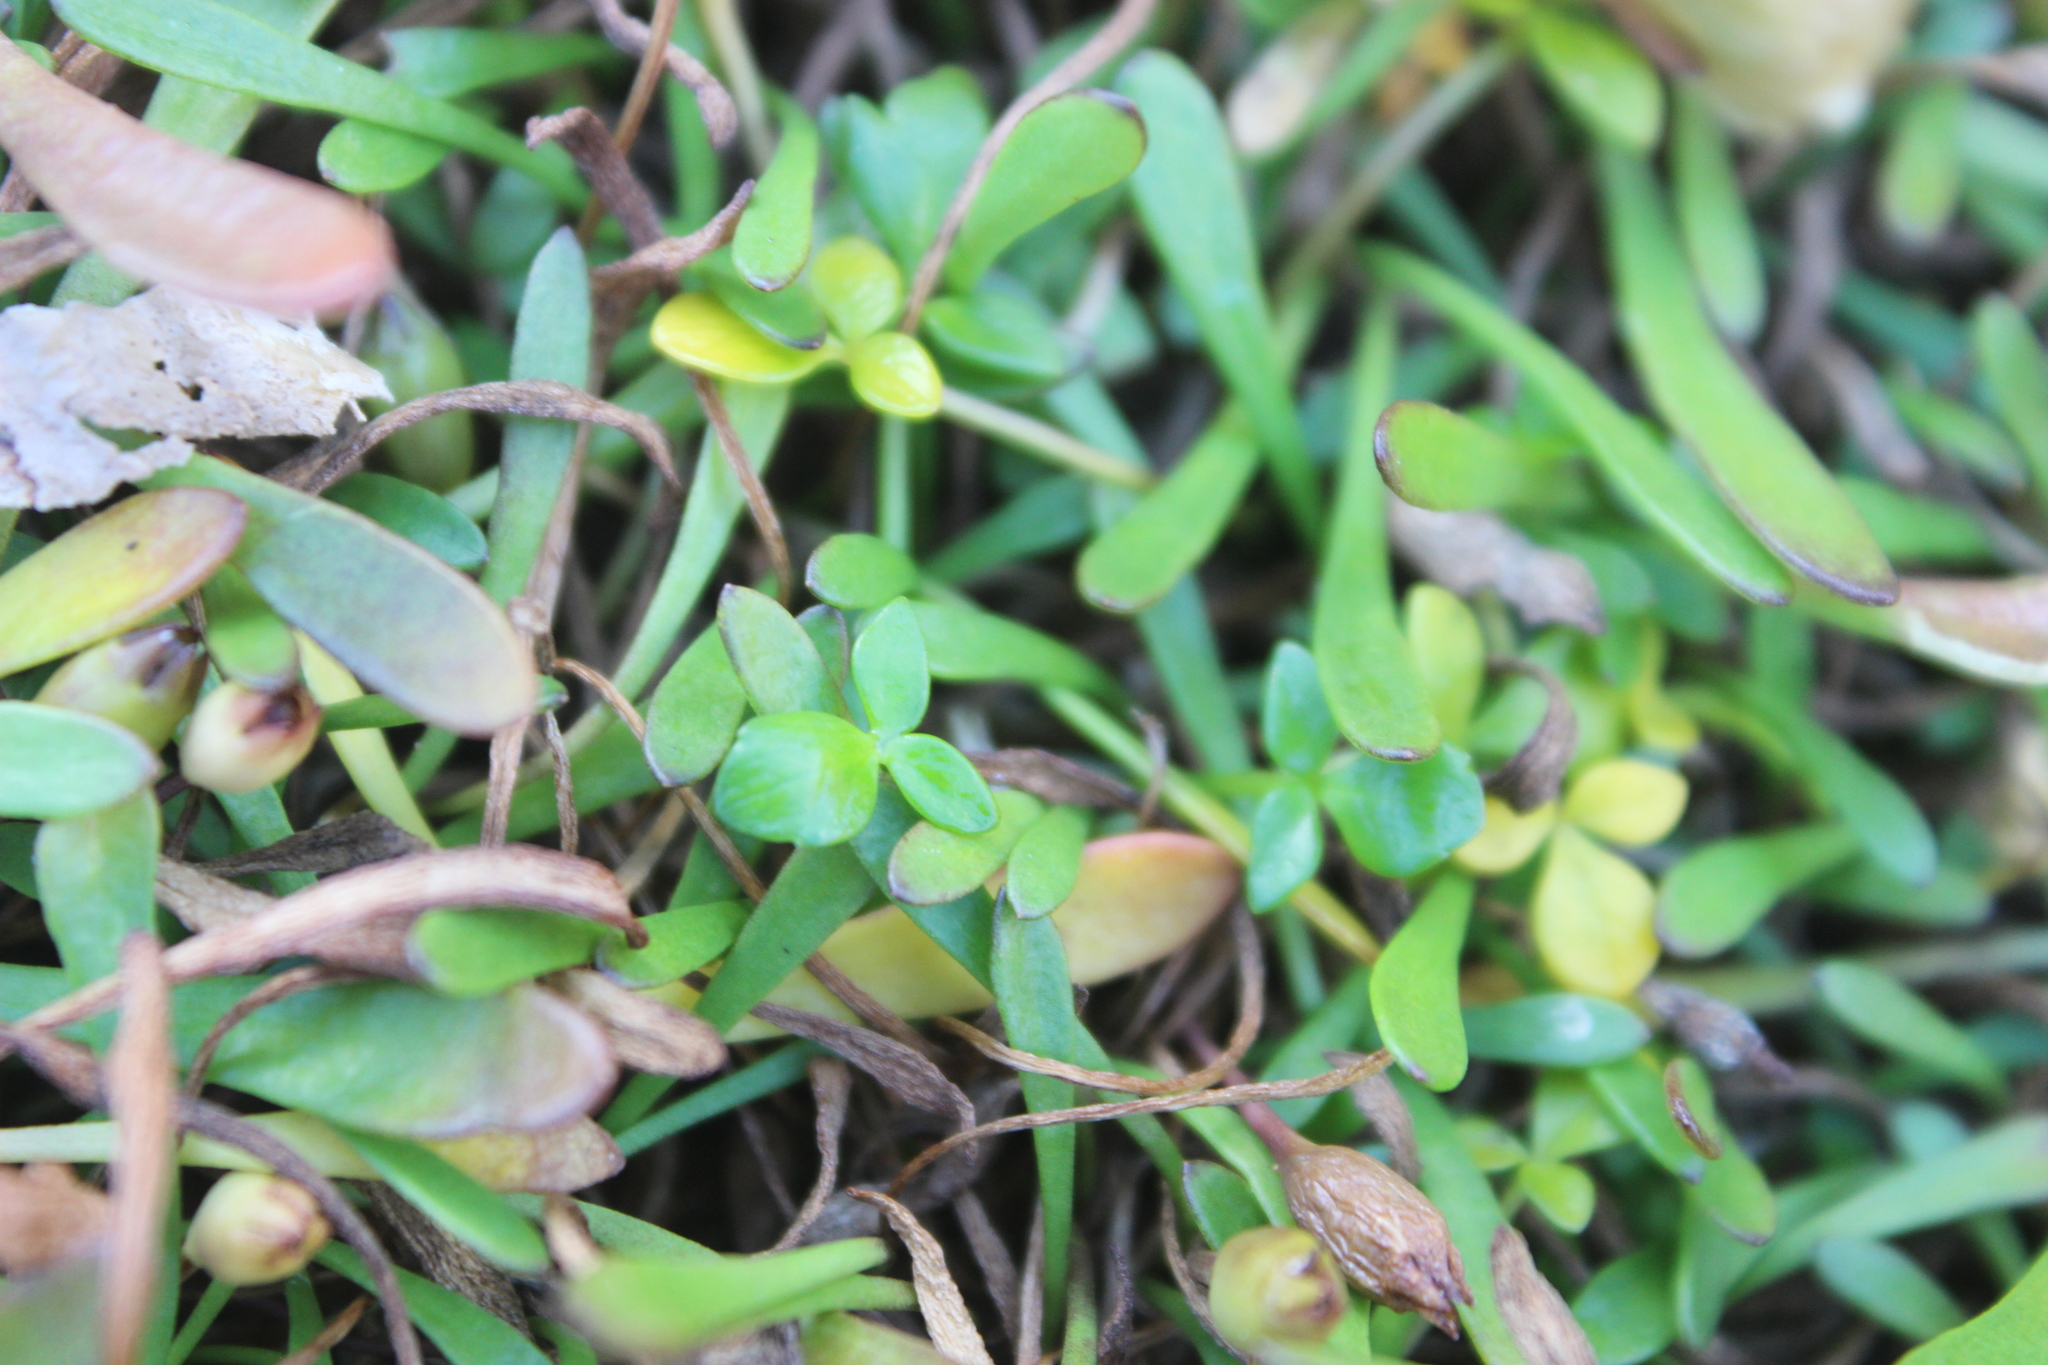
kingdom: Plantae
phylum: Tracheophyta
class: Magnoliopsida
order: Ranunculales
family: Ranunculaceae
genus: Ranunculus
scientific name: Ranunculus acaulis
